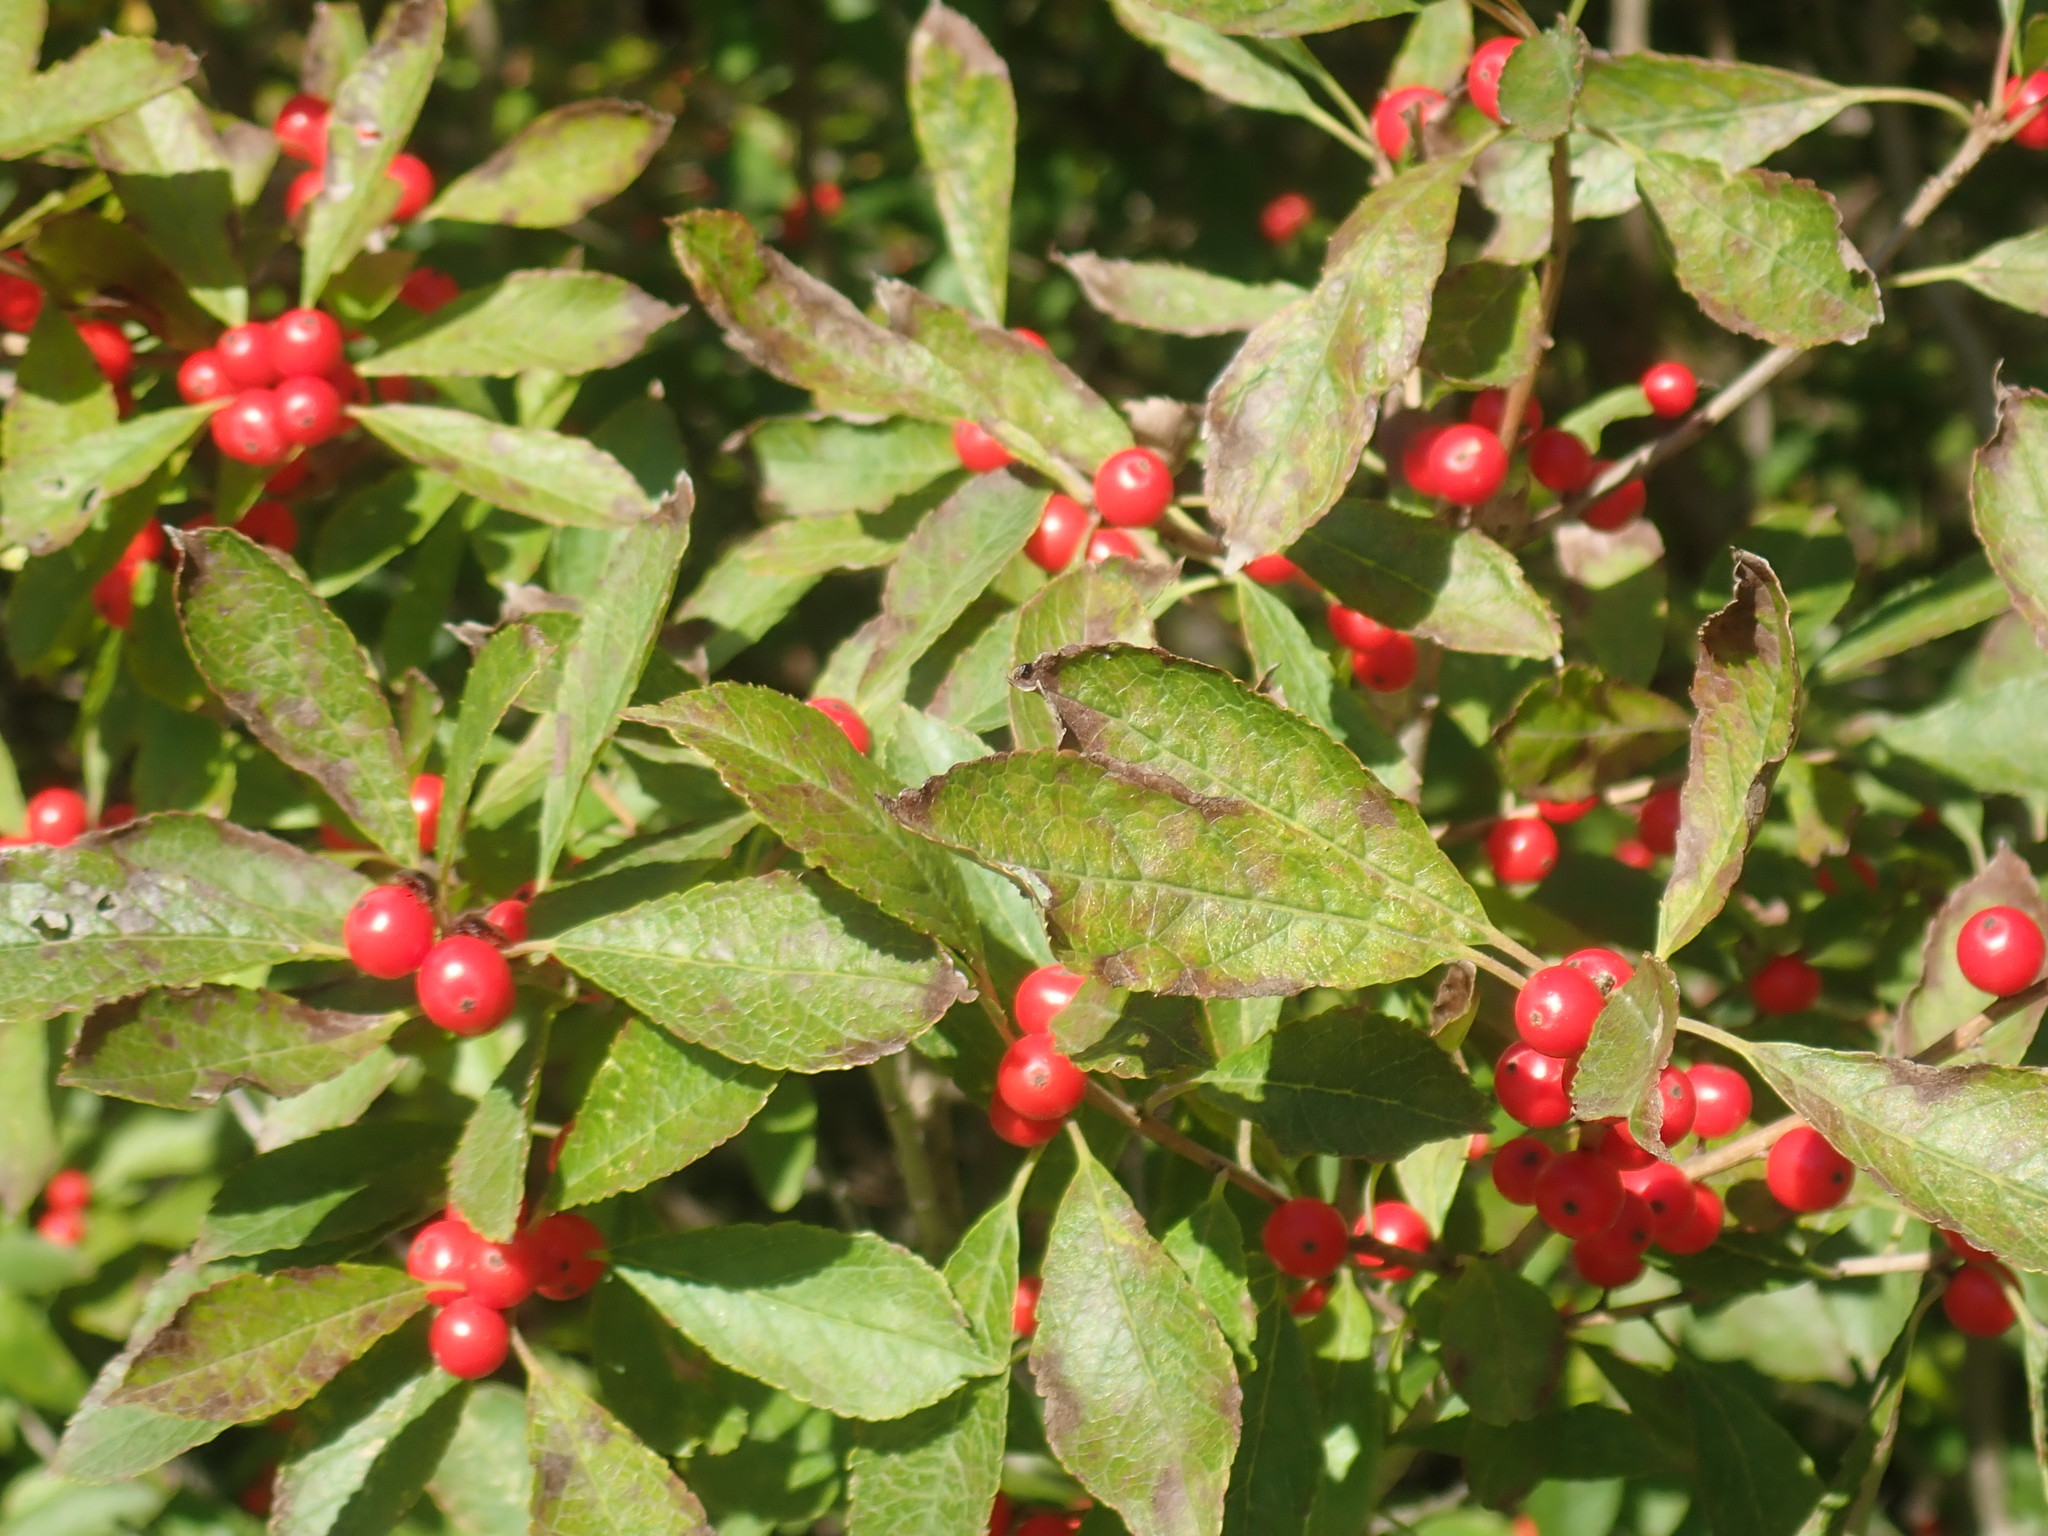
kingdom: Plantae
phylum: Tracheophyta
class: Magnoliopsida
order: Aquifoliales
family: Aquifoliaceae
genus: Ilex
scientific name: Ilex verticillata
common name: Virginia winterberry
